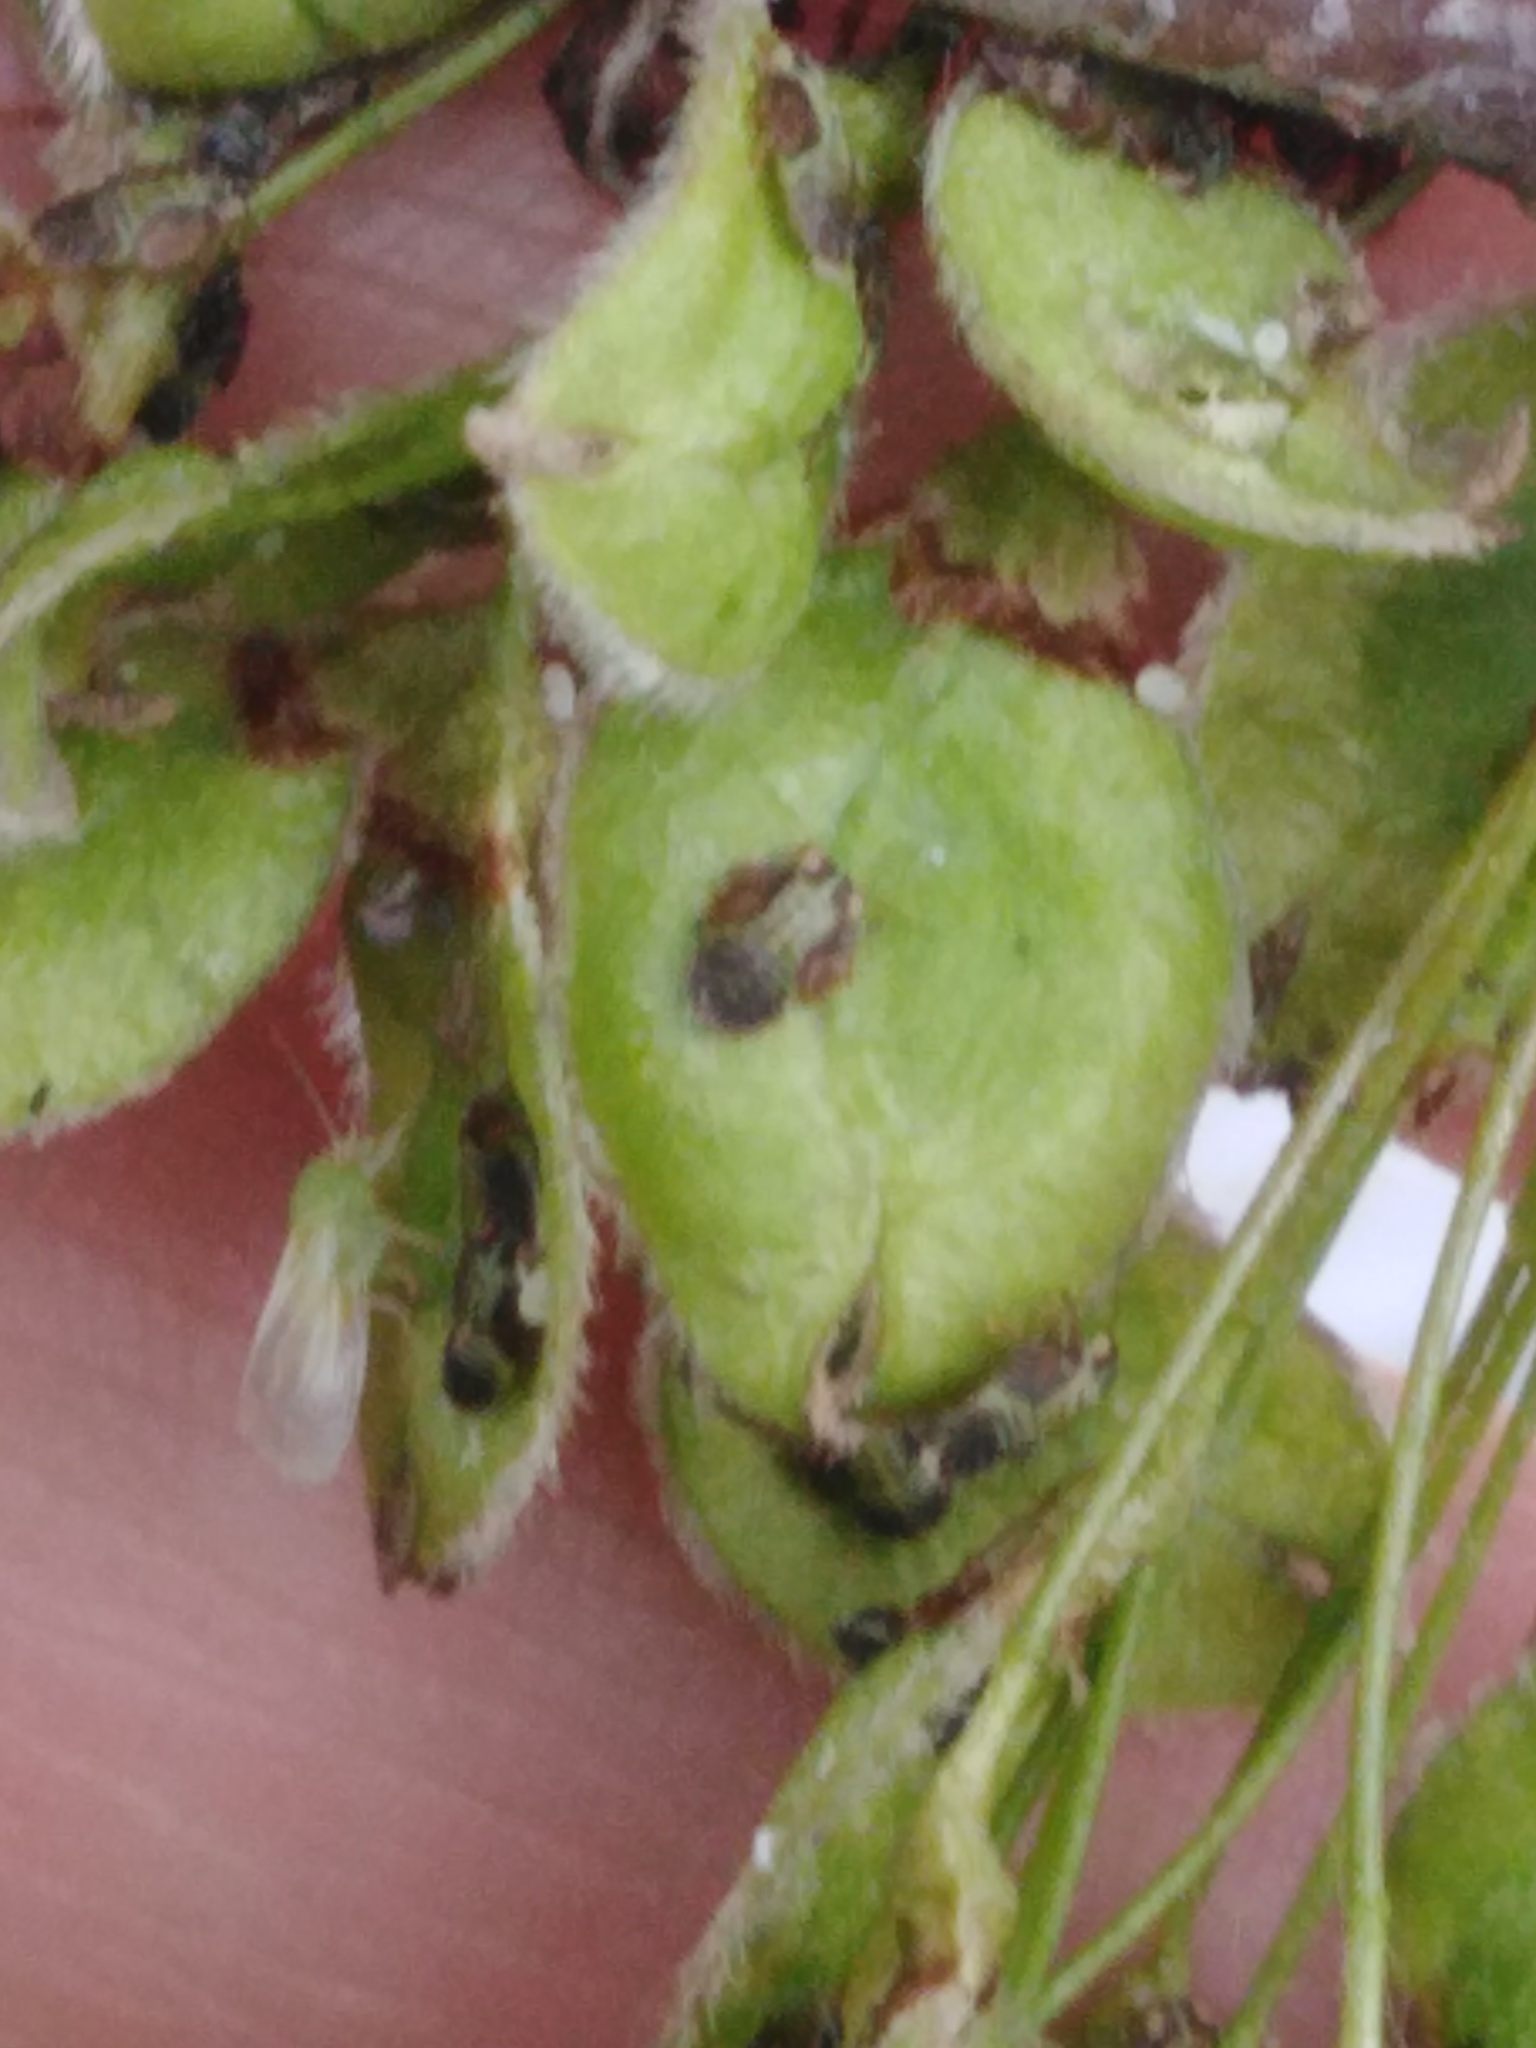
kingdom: Plantae
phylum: Tracheophyta
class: Magnoliopsida
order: Rosales
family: Ulmaceae
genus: Ulmus
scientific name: Ulmus laevis
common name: European white-elm
